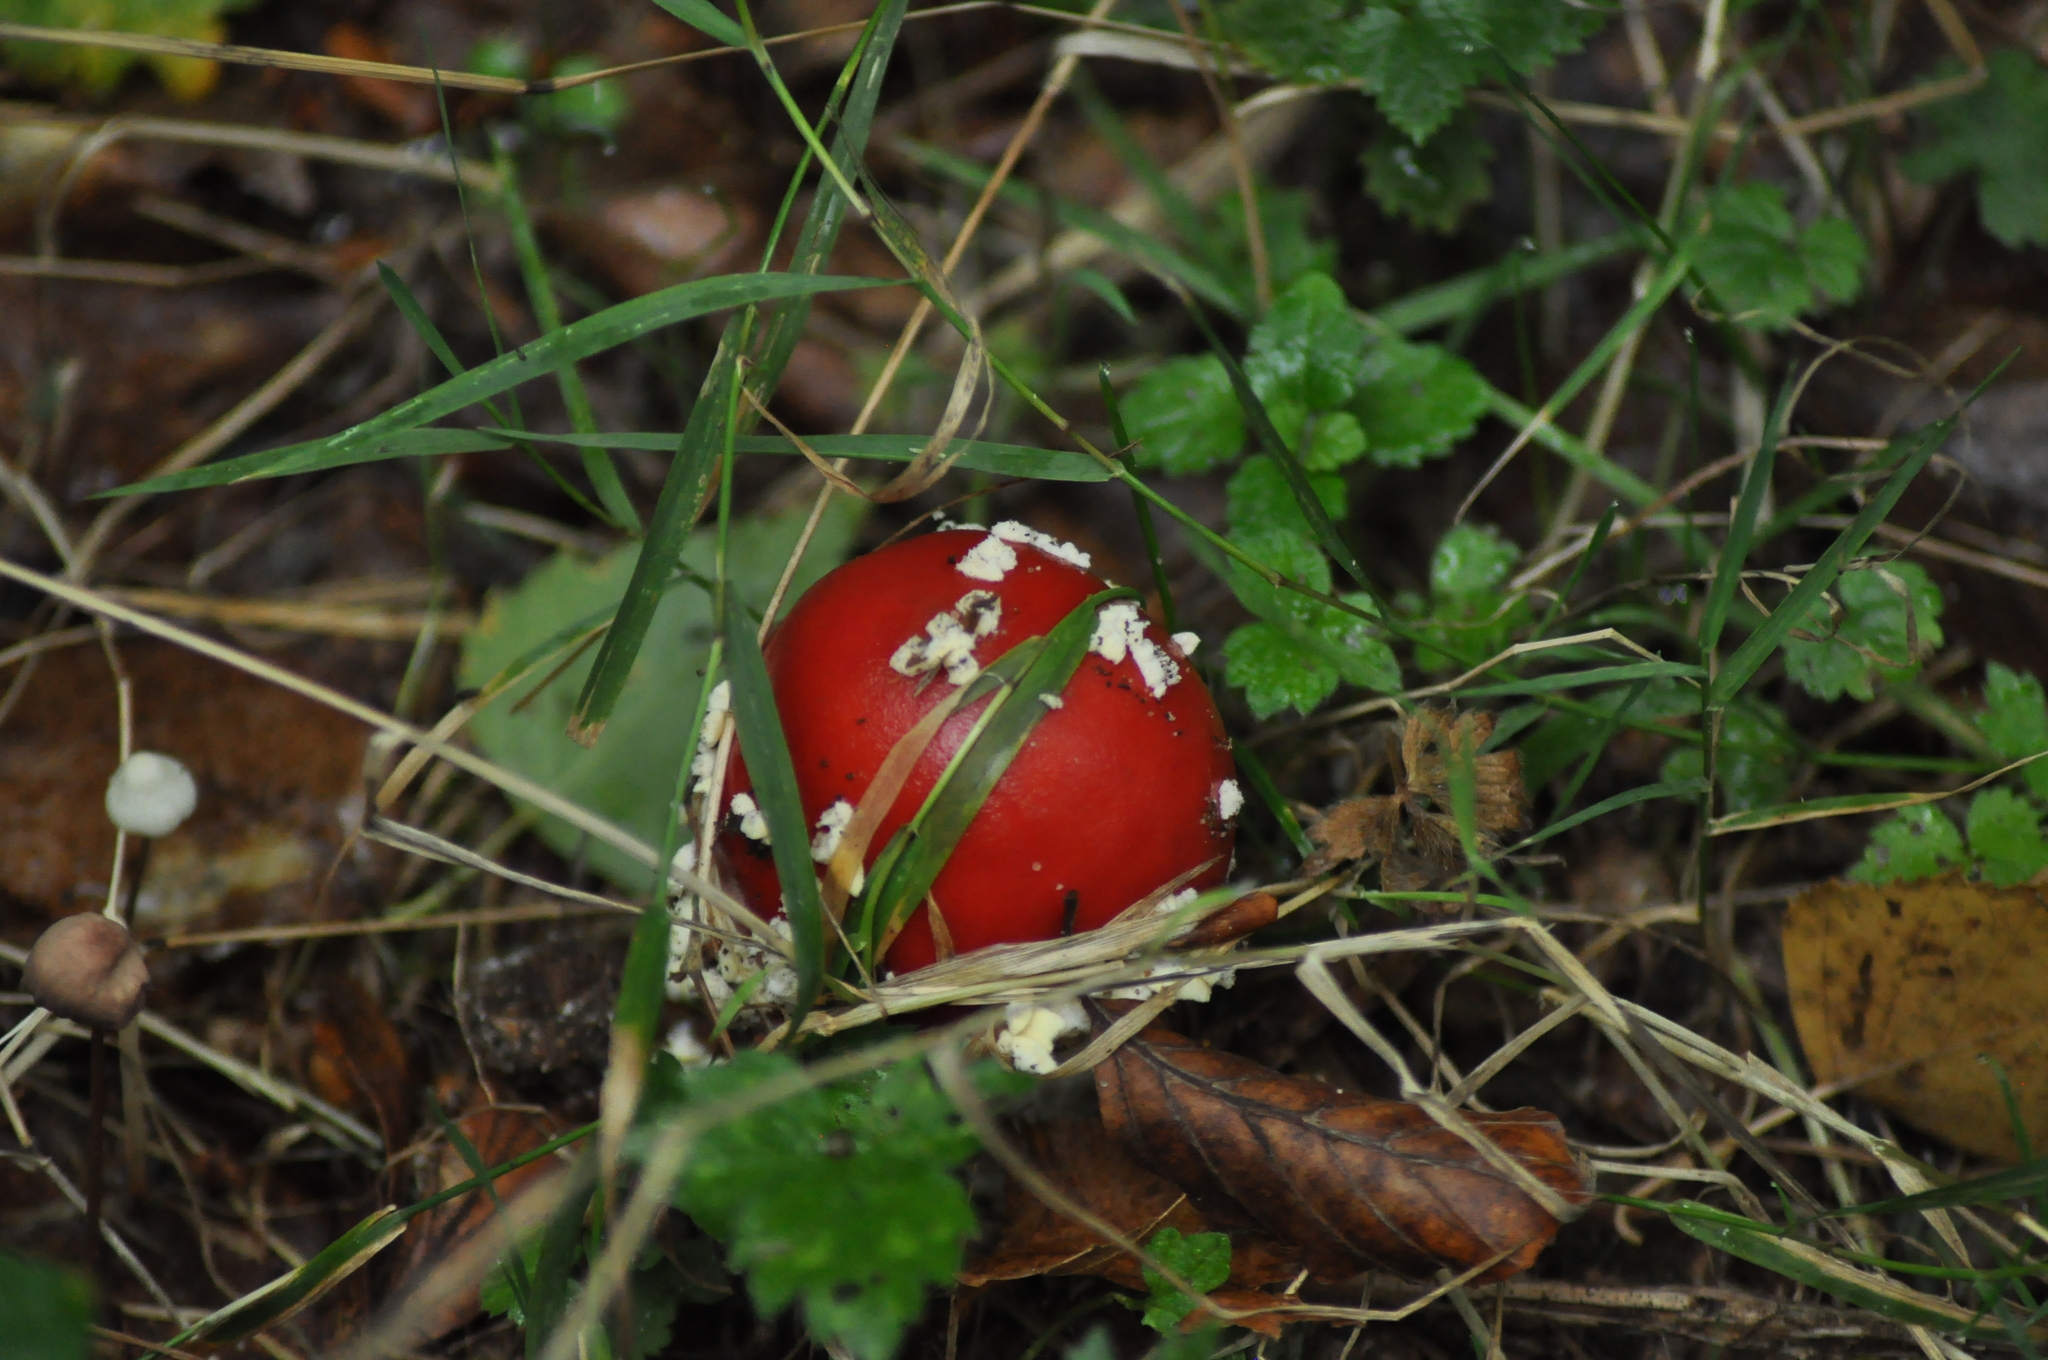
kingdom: Fungi
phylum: Basidiomycota
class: Agaricomycetes
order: Agaricales
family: Amanitaceae
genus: Amanita
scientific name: Amanita muscaria
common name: Fly agaric
